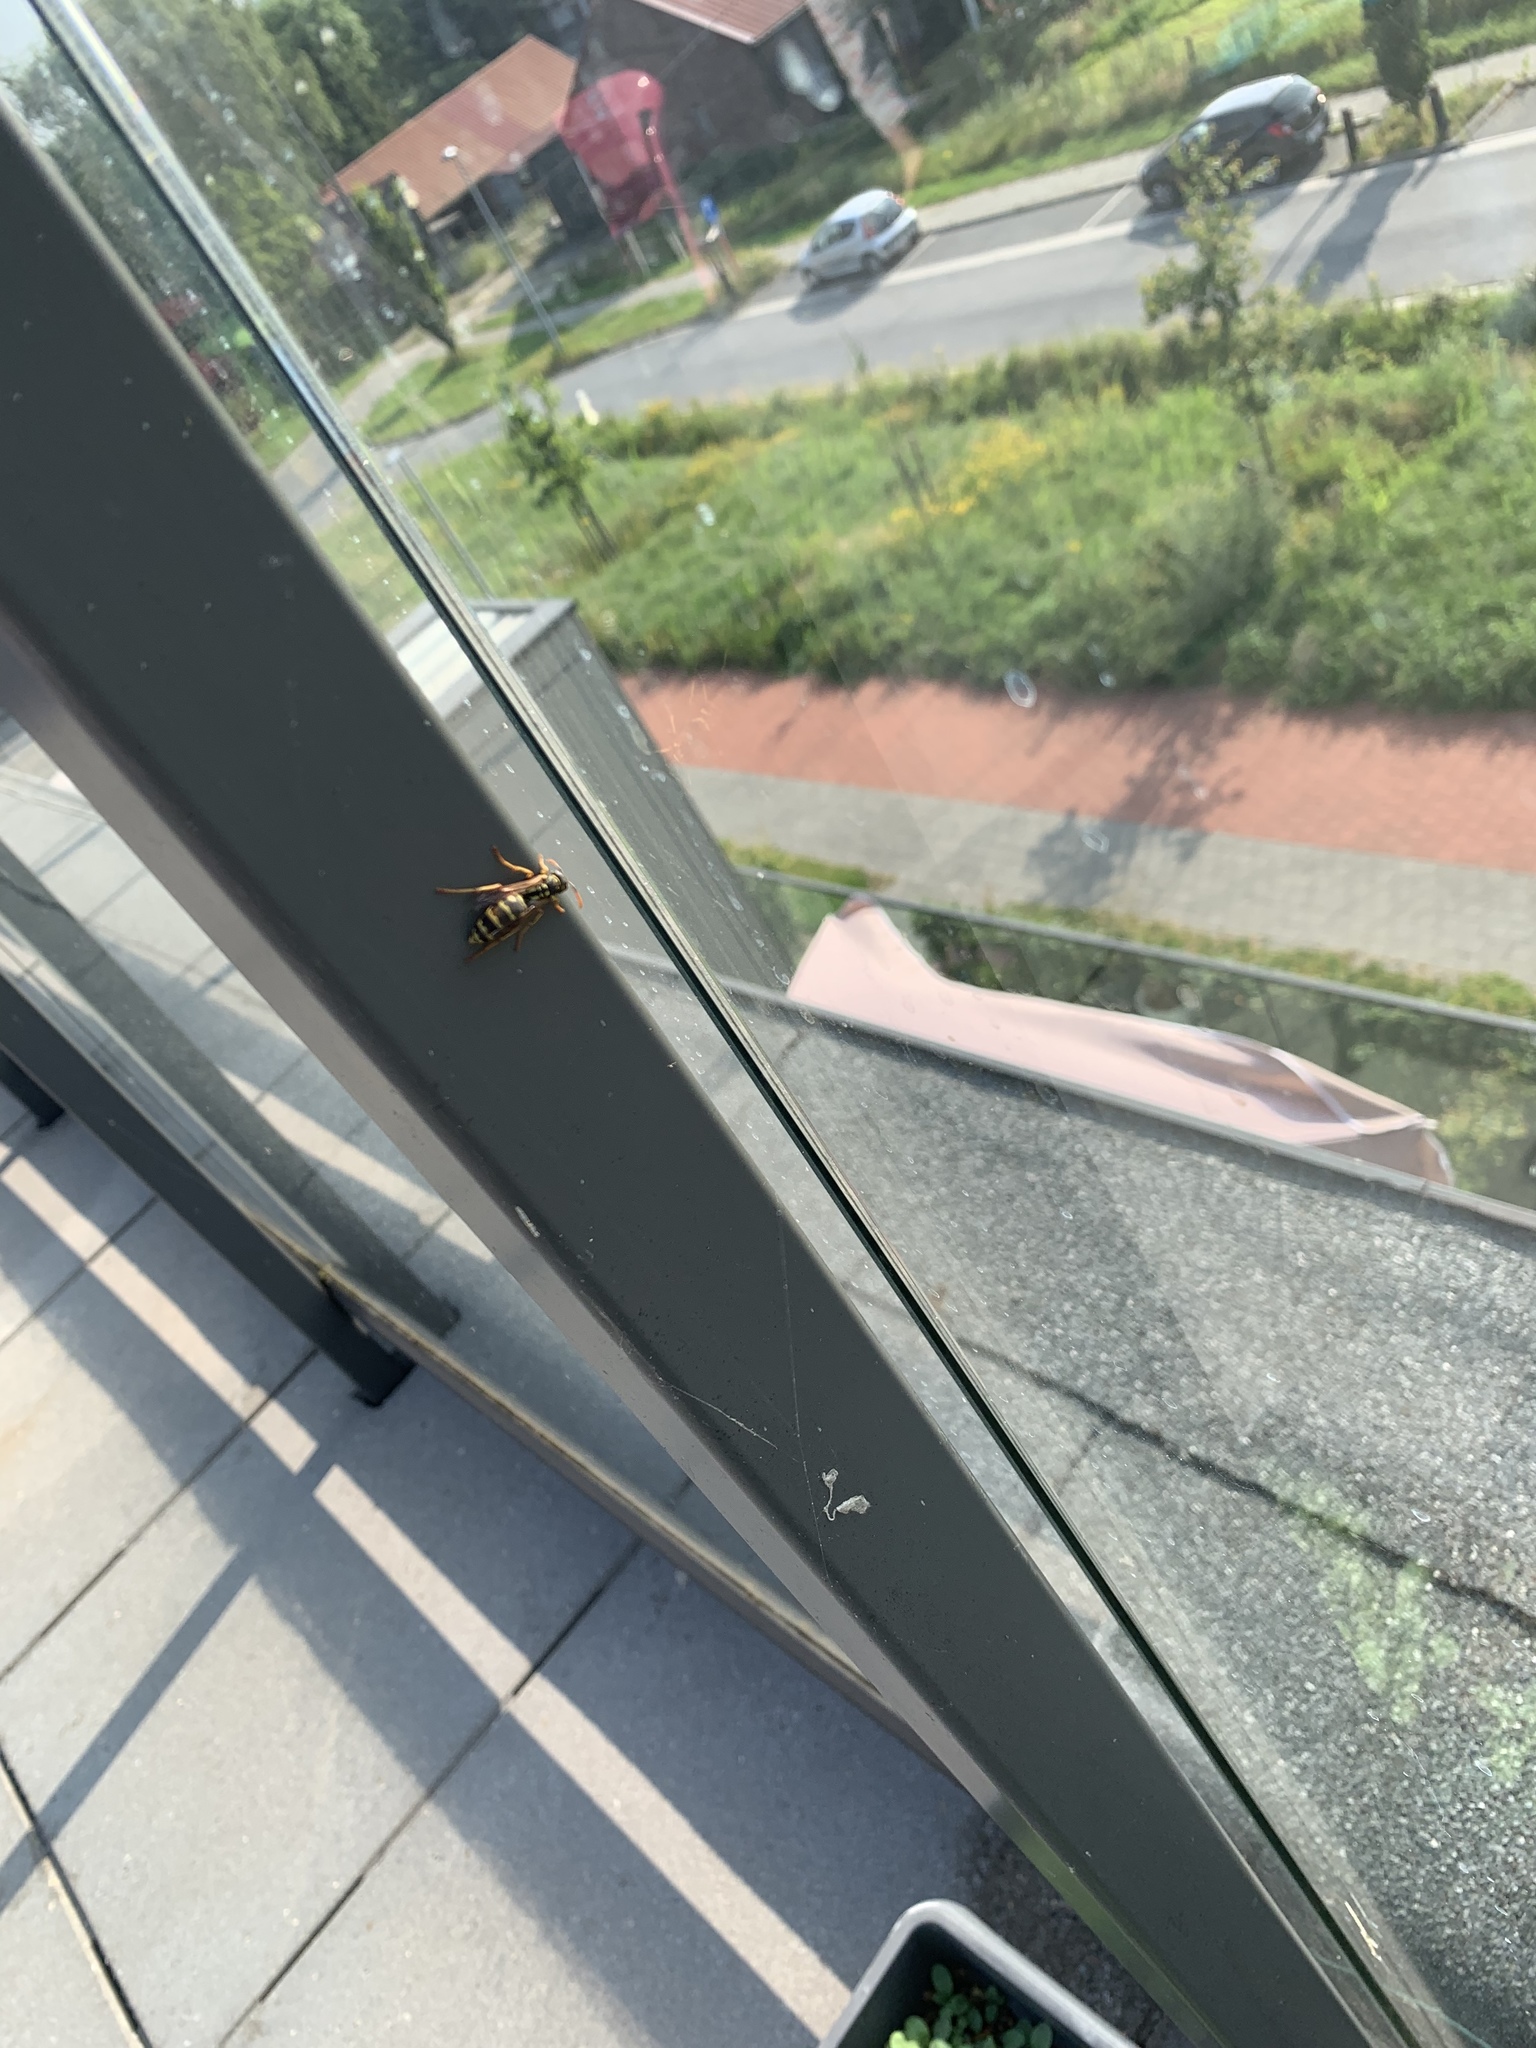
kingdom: Animalia
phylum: Arthropoda
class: Insecta
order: Hymenoptera
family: Eumenidae
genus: Polistes
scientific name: Polistes dominula
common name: Paper wasp
